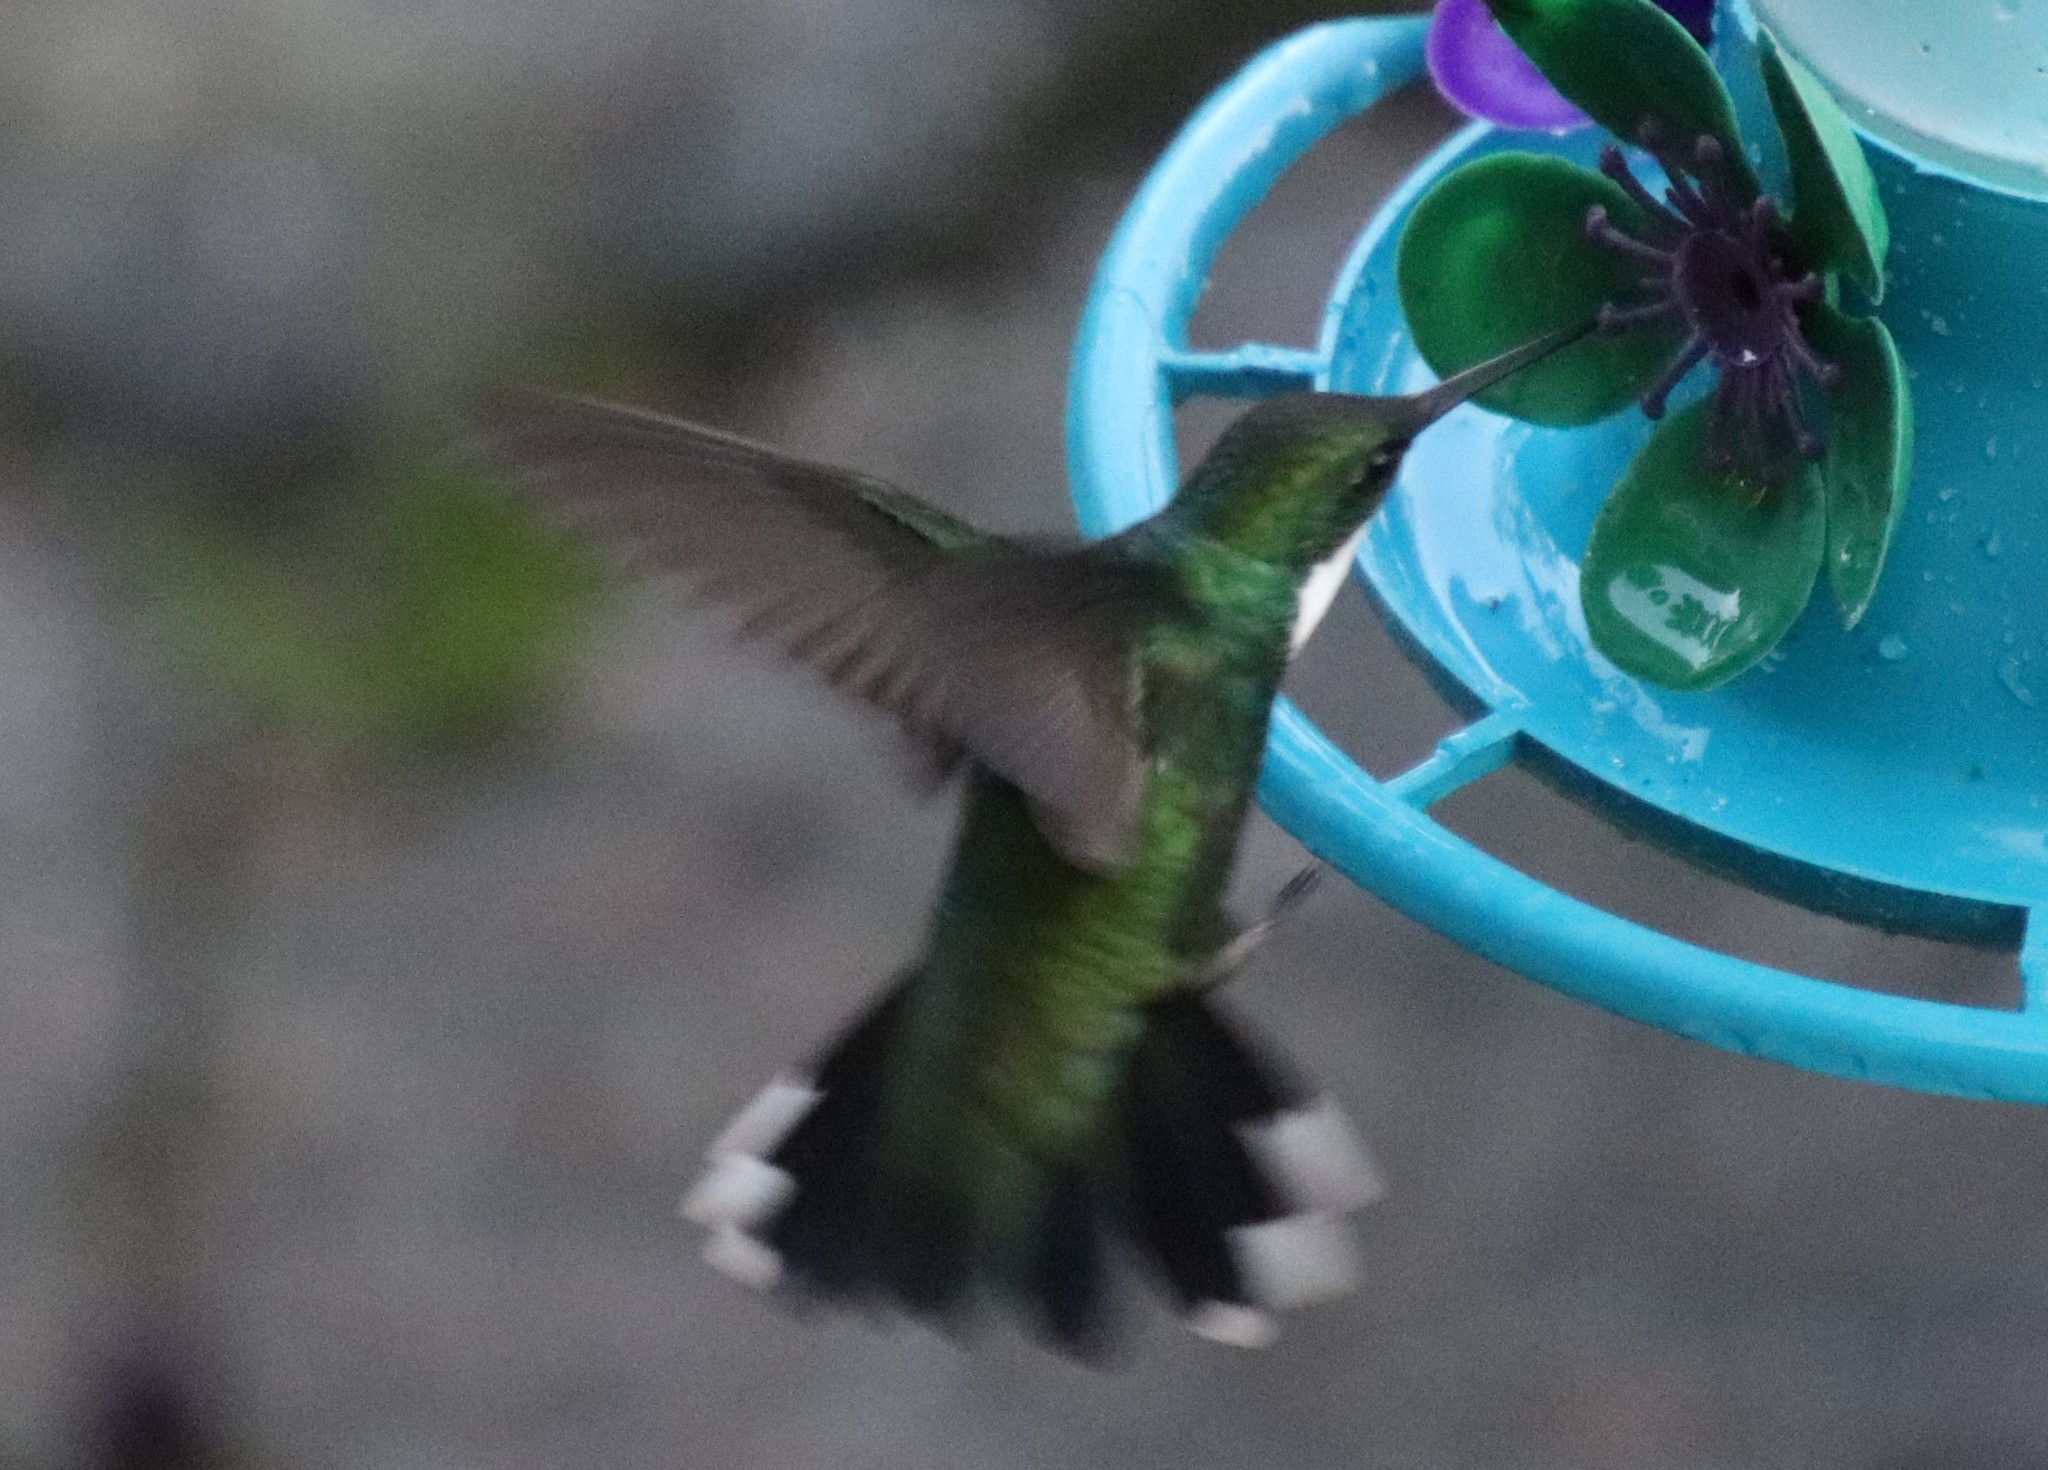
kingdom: Animalia
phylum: Chordata
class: Aves
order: Apodiformes
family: Trochilidae
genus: Leucochloris
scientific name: Leucochloris albicollis
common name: White-throated hummingbird
